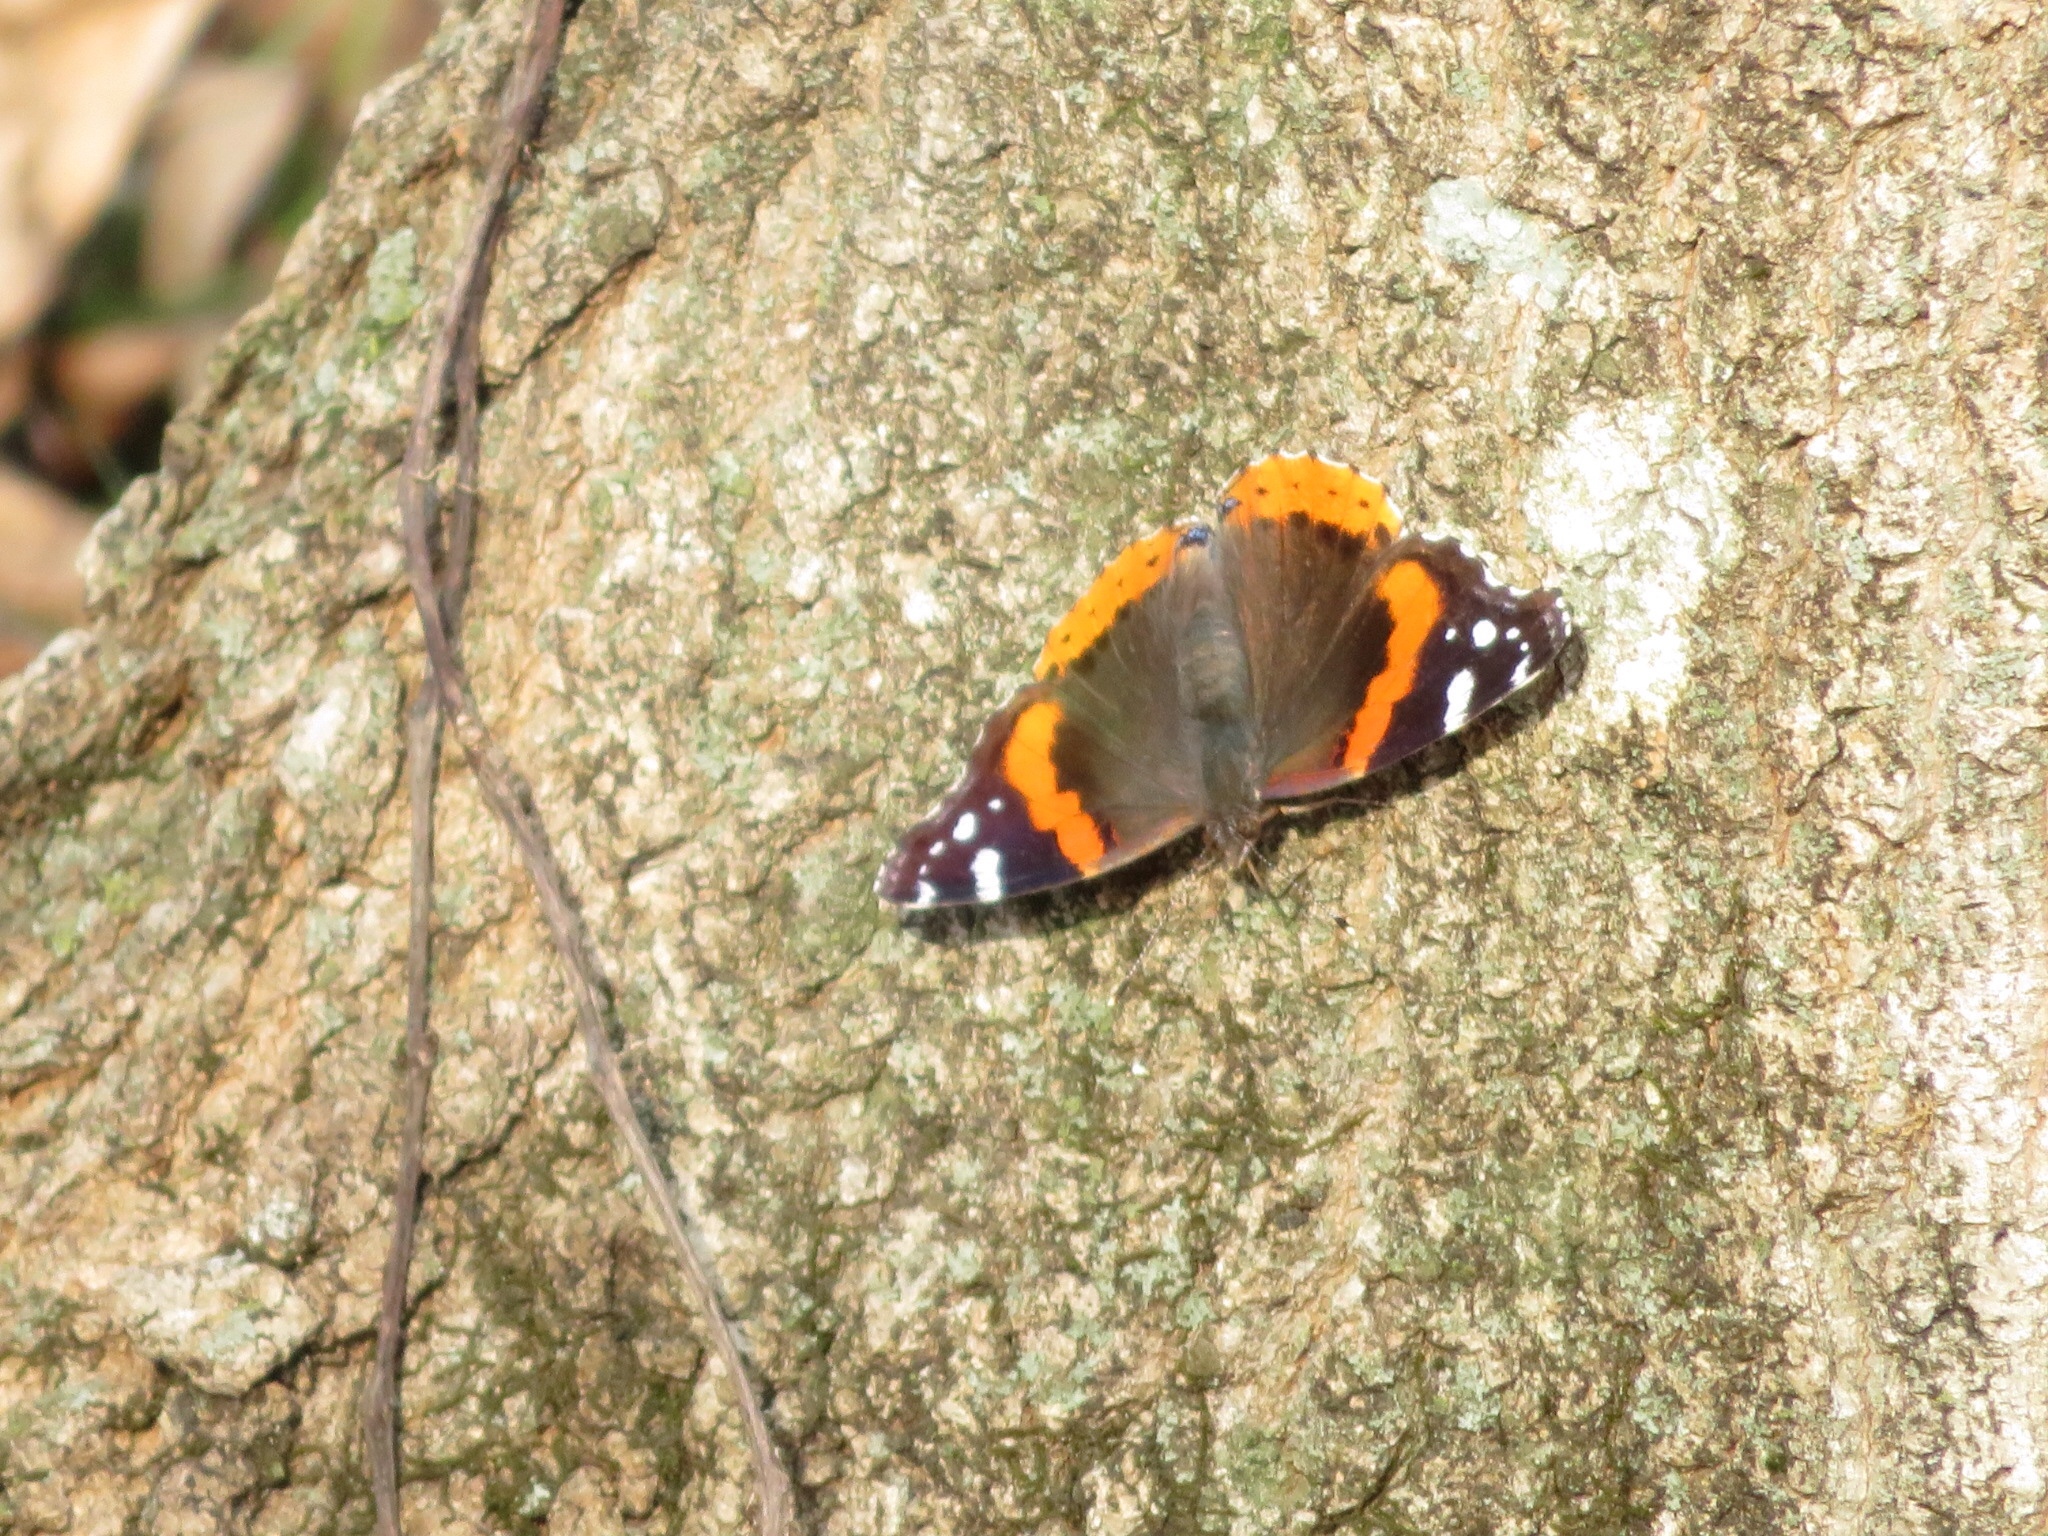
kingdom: Animalia
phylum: Arthropoda
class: Insecta
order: Lepidoptera
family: Nymphalidae
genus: Vanessa
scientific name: Vanessa atalanta
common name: Red admiral
